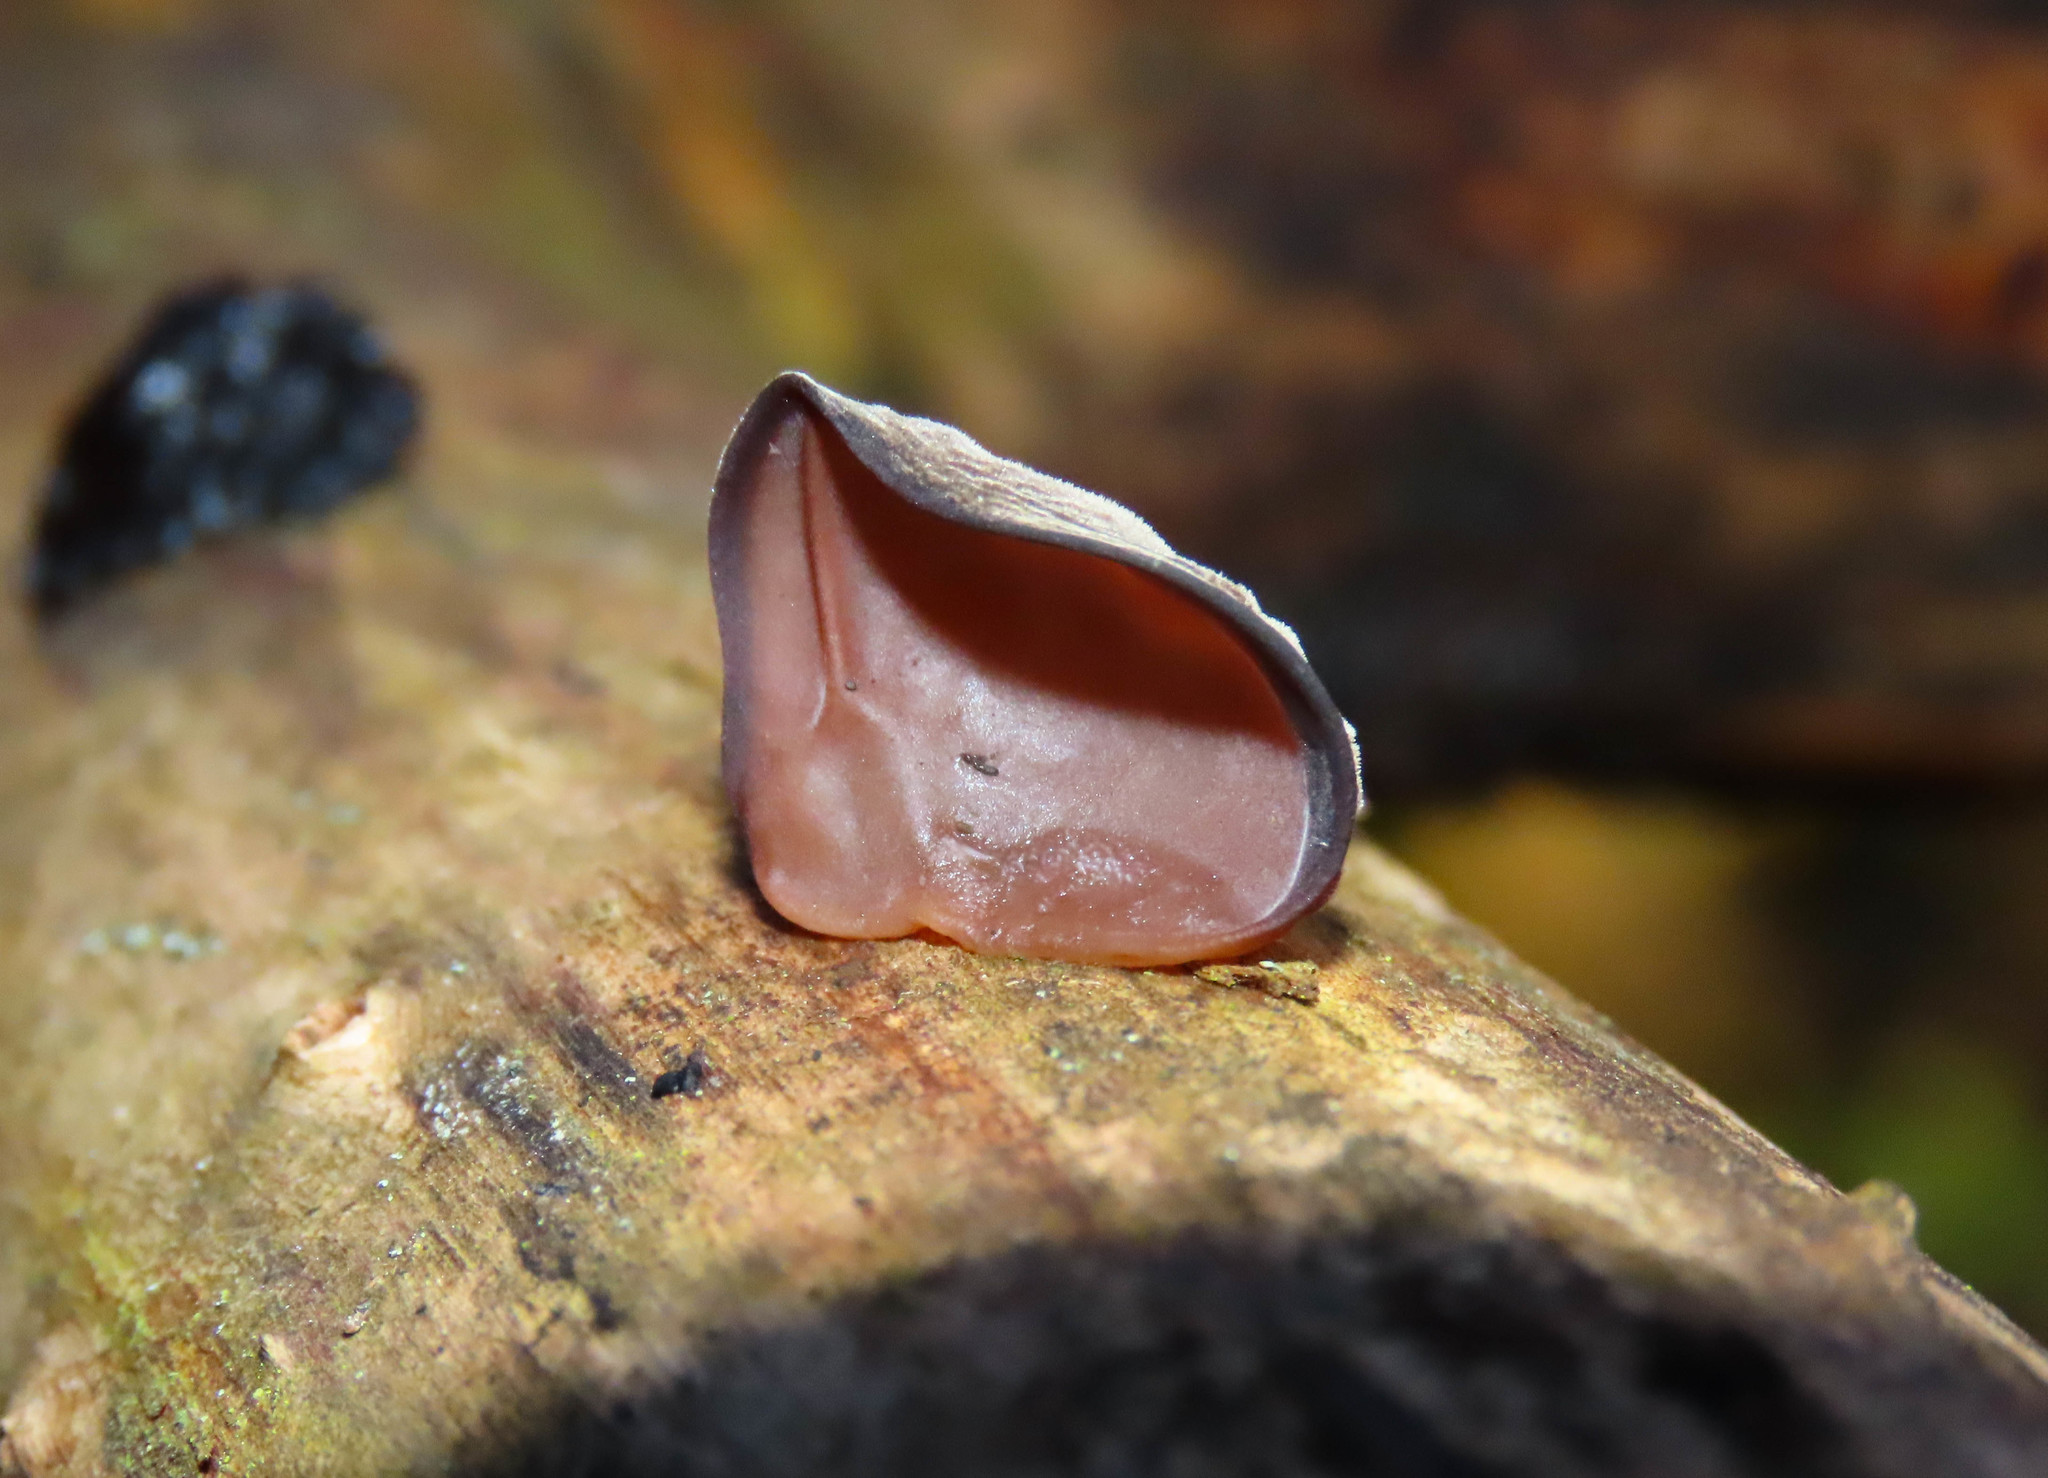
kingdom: Fungi
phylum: Basidiomycota
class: Agaricomycetes
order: Auriculariales
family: Auriculariaceae
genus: Auricularia
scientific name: Auricularia auricula-judae
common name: Jelly ear
